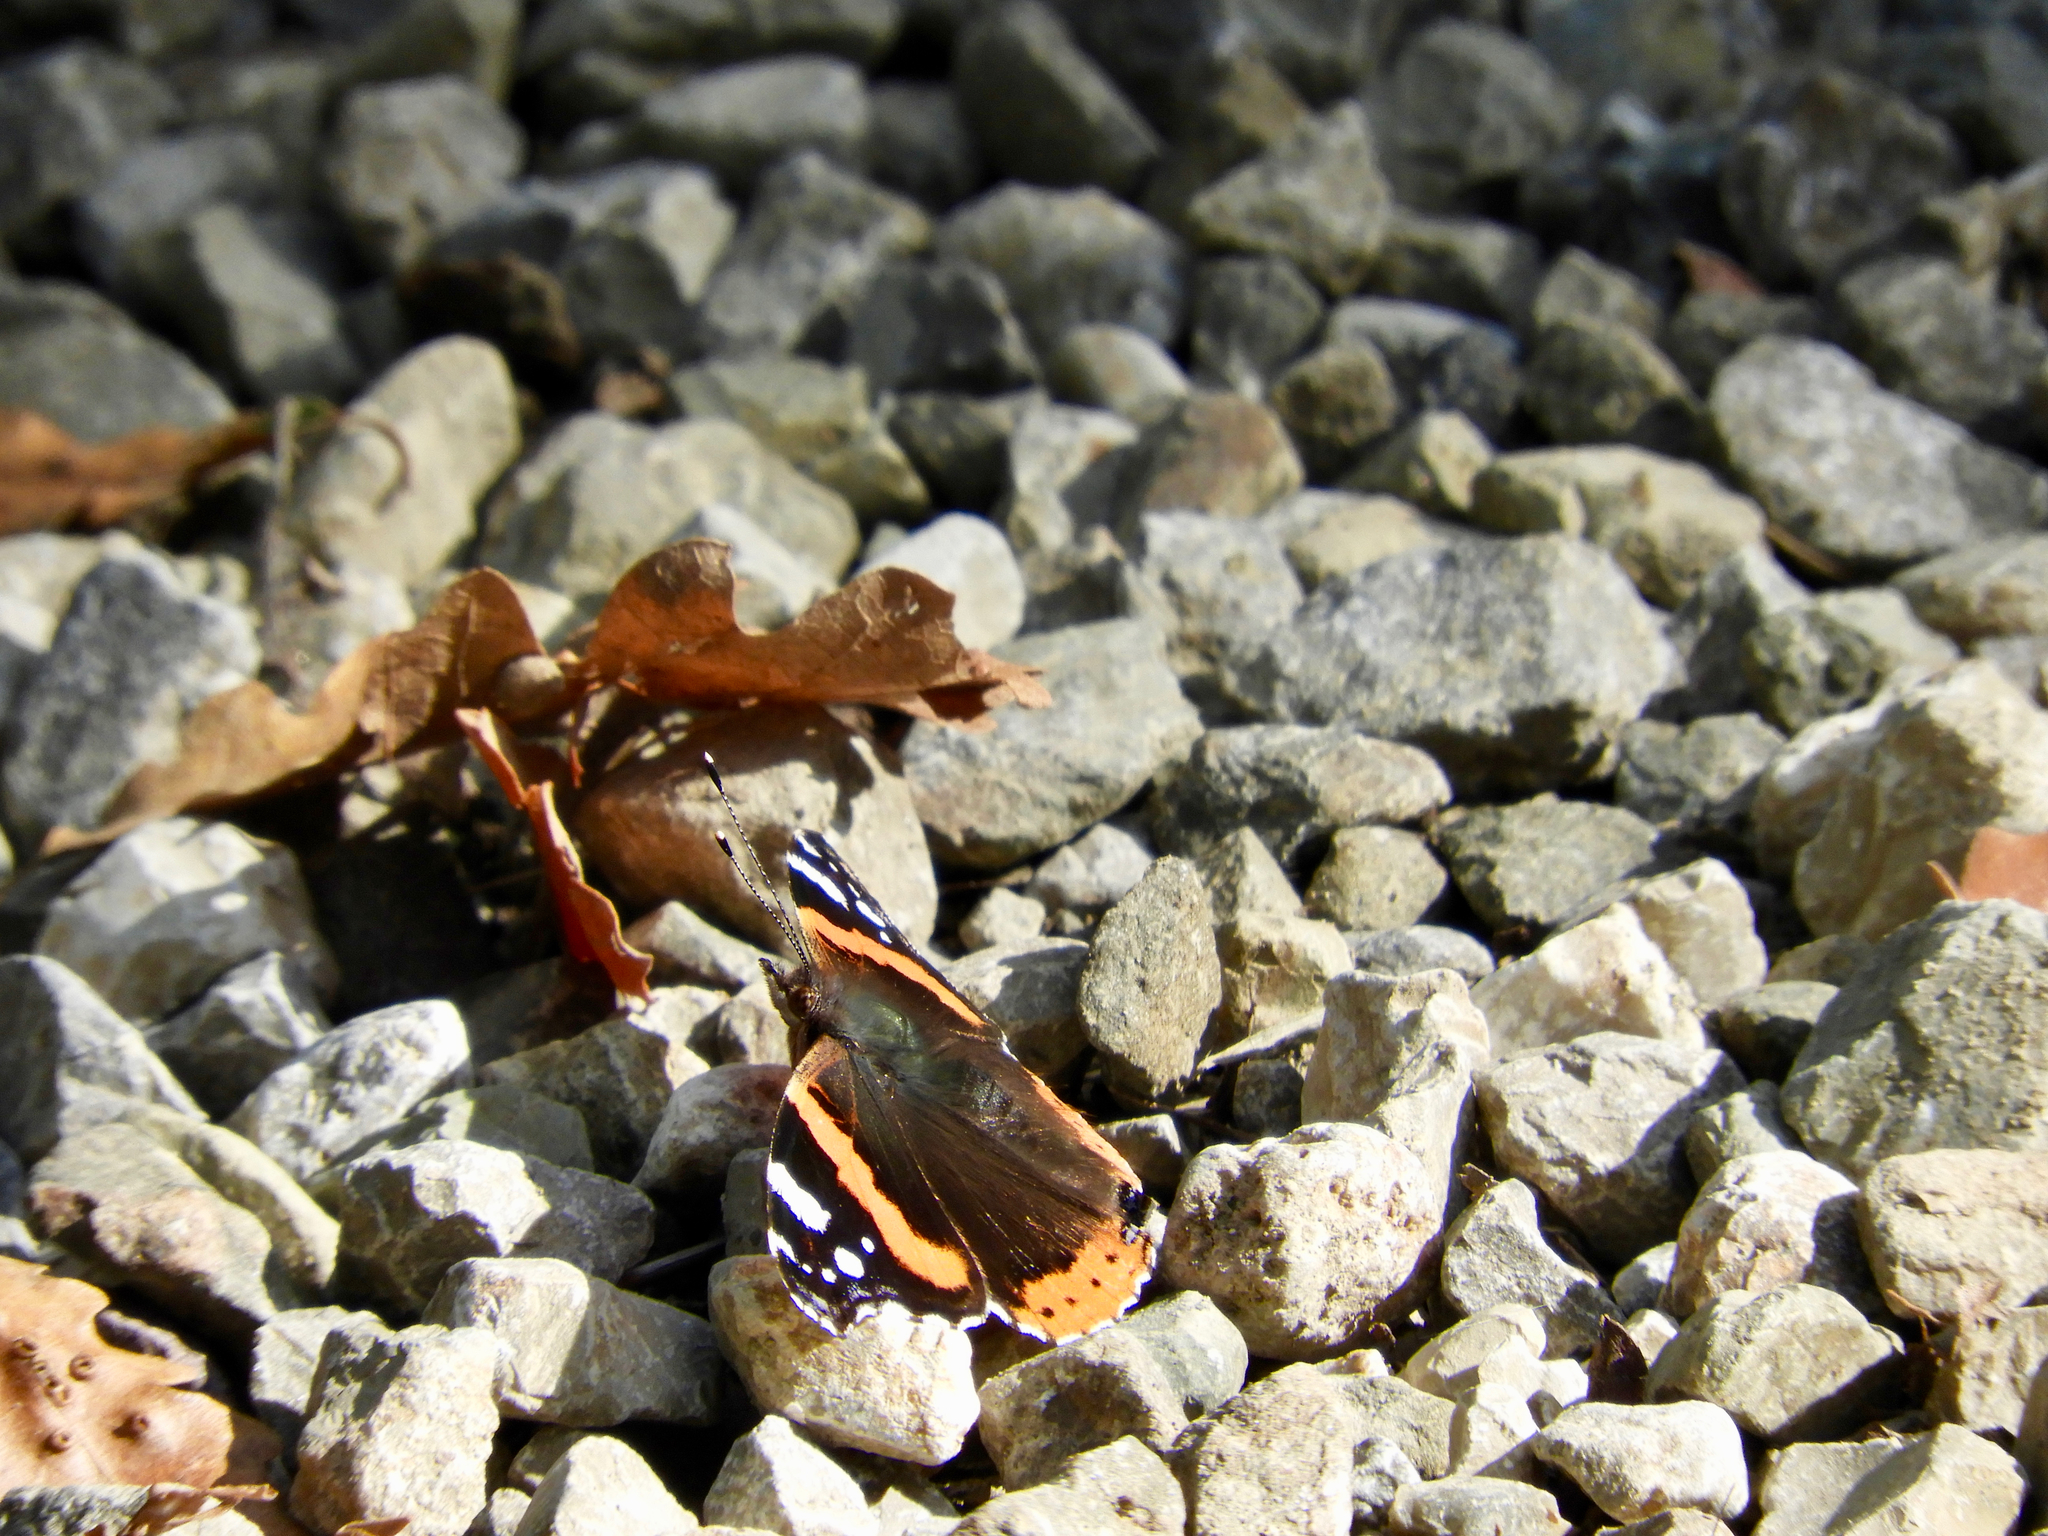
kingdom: Animalia
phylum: Arthropoda
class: Insecta
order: Lepidoptera
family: Nymphalidae
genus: Vanessa
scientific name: Vanessa atalanta
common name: Red admiral
